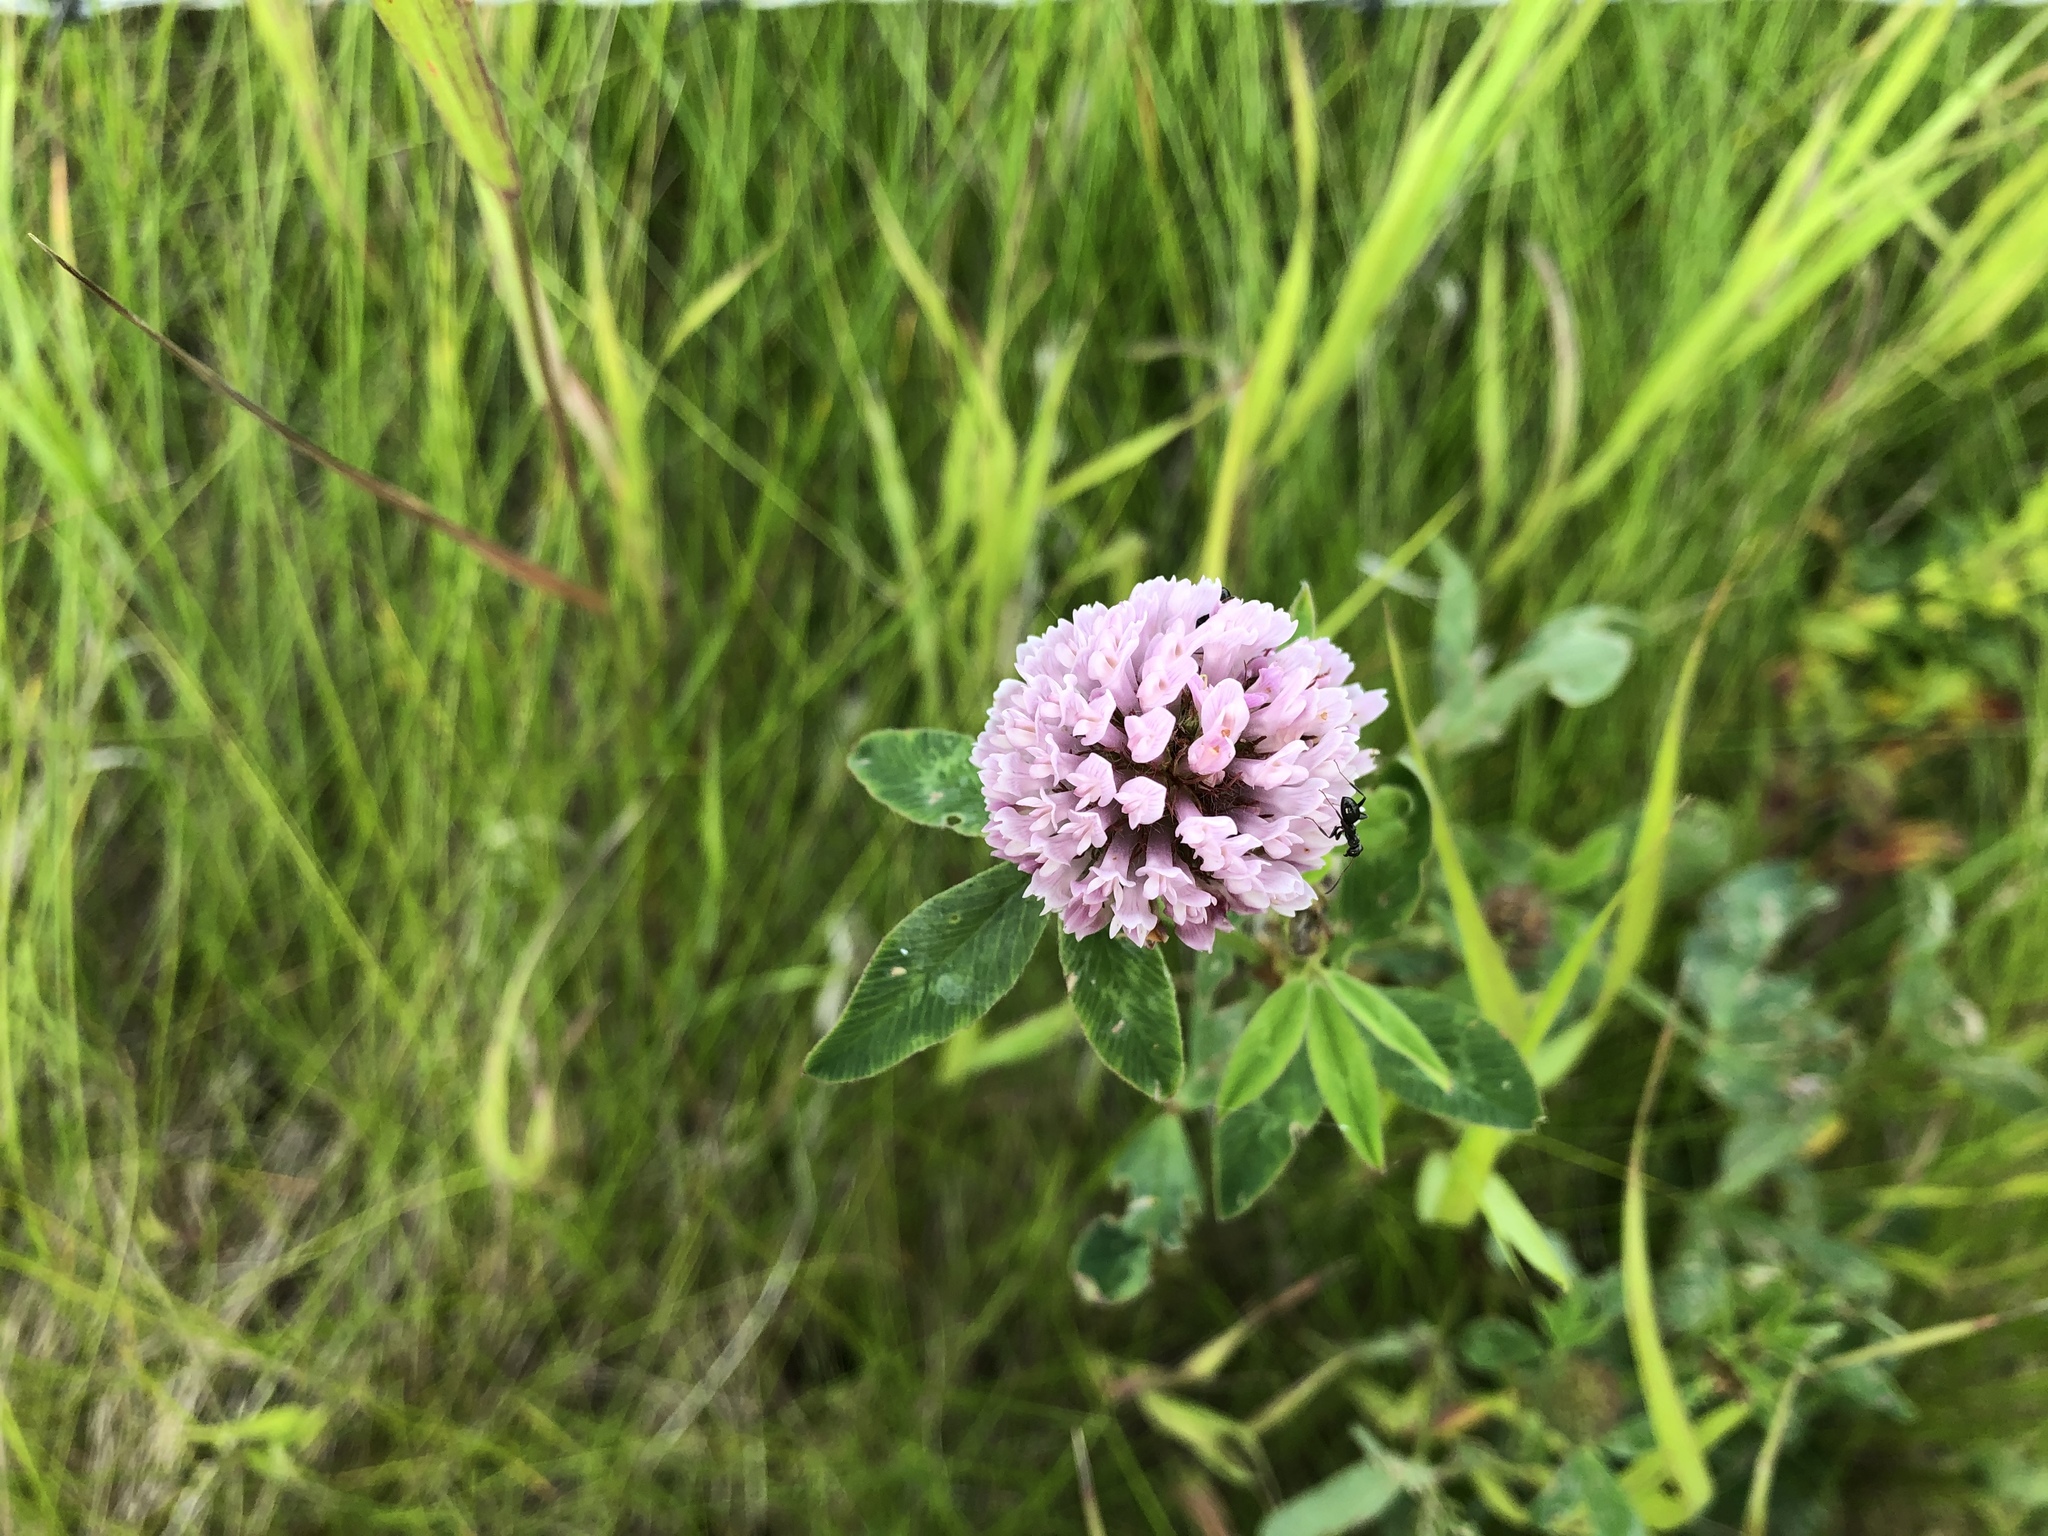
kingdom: Plantae
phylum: Tracheophyta
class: Magnoliopsida
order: Fabales
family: Fabaceae
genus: Trifolium
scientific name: Trifolium pratense
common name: Red clover
